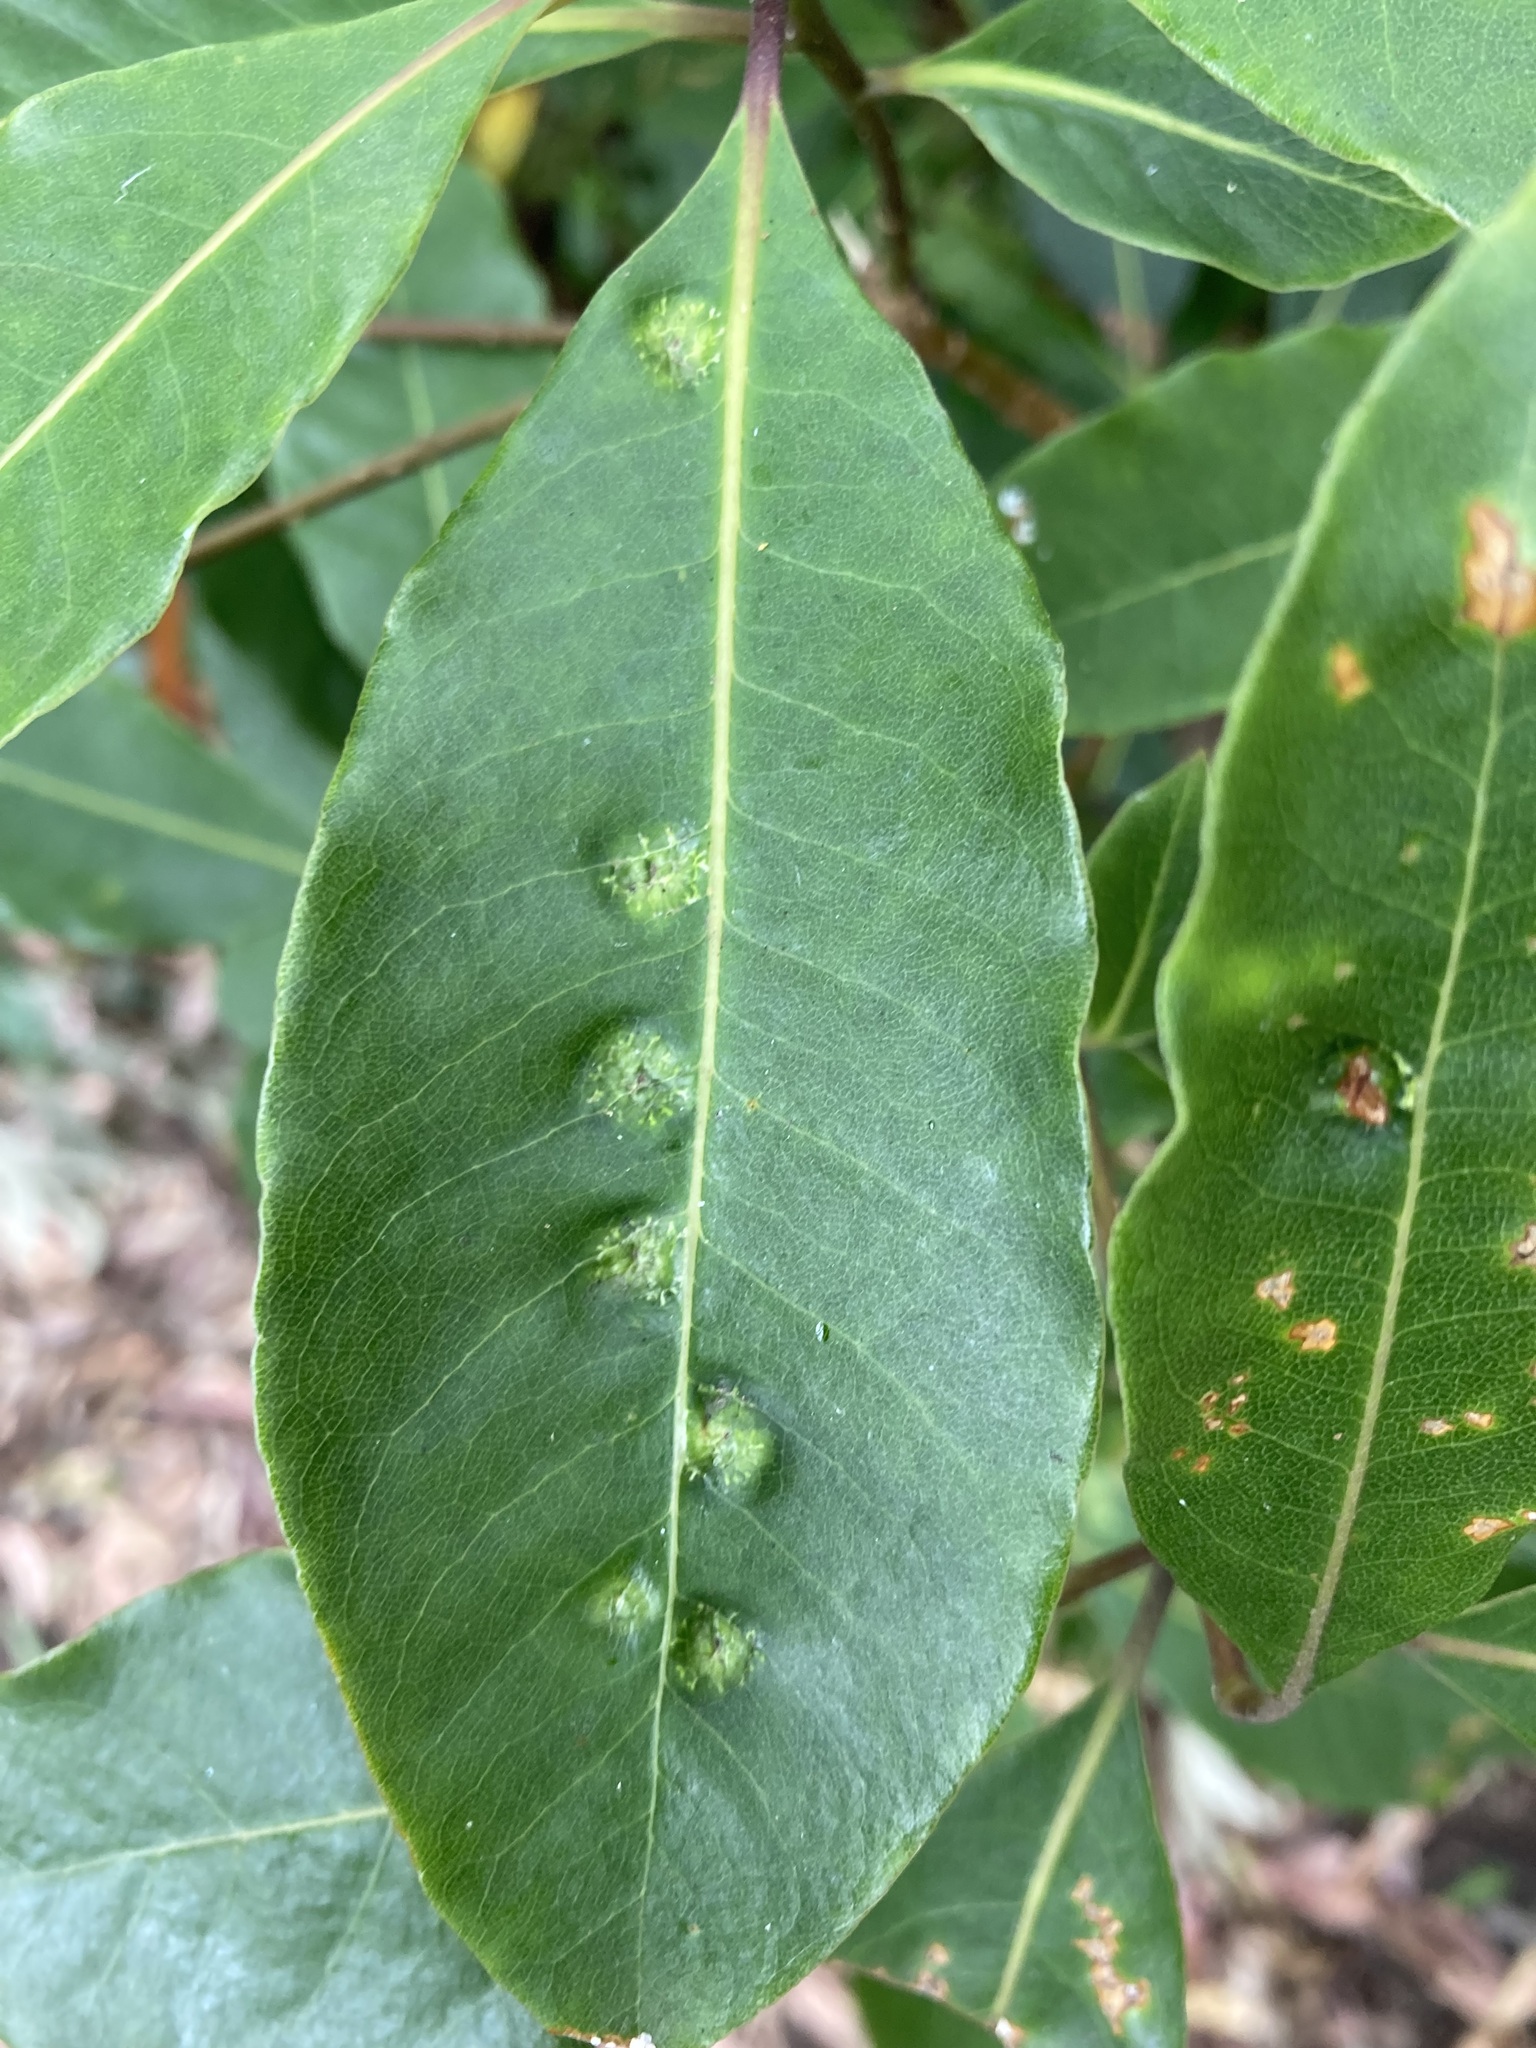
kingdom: Animalia
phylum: Arthropoda
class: Insecta
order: Diptera
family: Agromyzidae
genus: Phytoliriomyza
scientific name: Phytoliriomyza pittosporophylli
